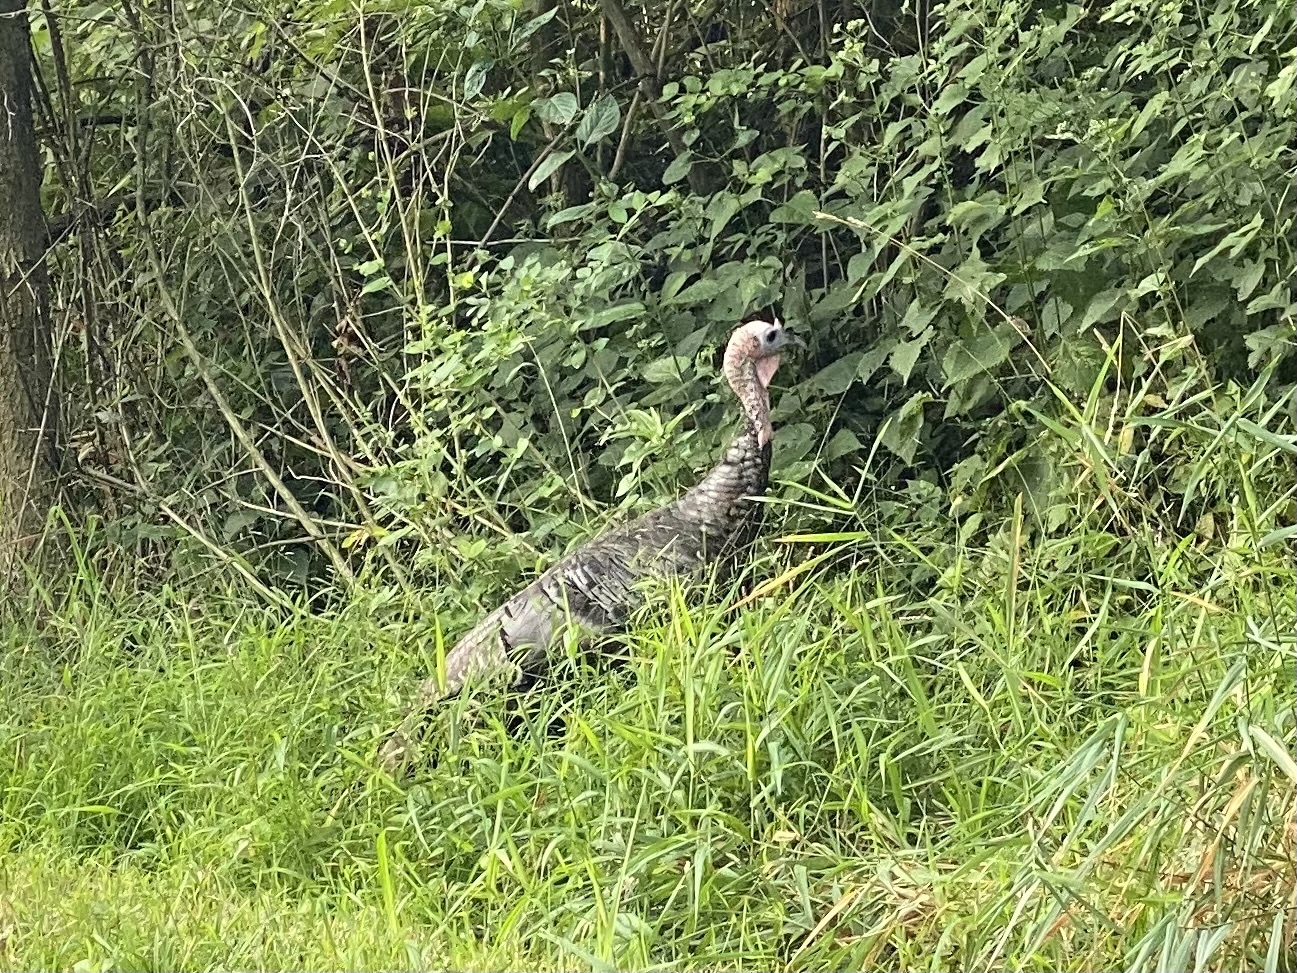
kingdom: Animalia
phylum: Chordata
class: Aves
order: Galliformes
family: Phasianidae
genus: Meleagris
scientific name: Meleagris gallopavo
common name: Wild turkey
